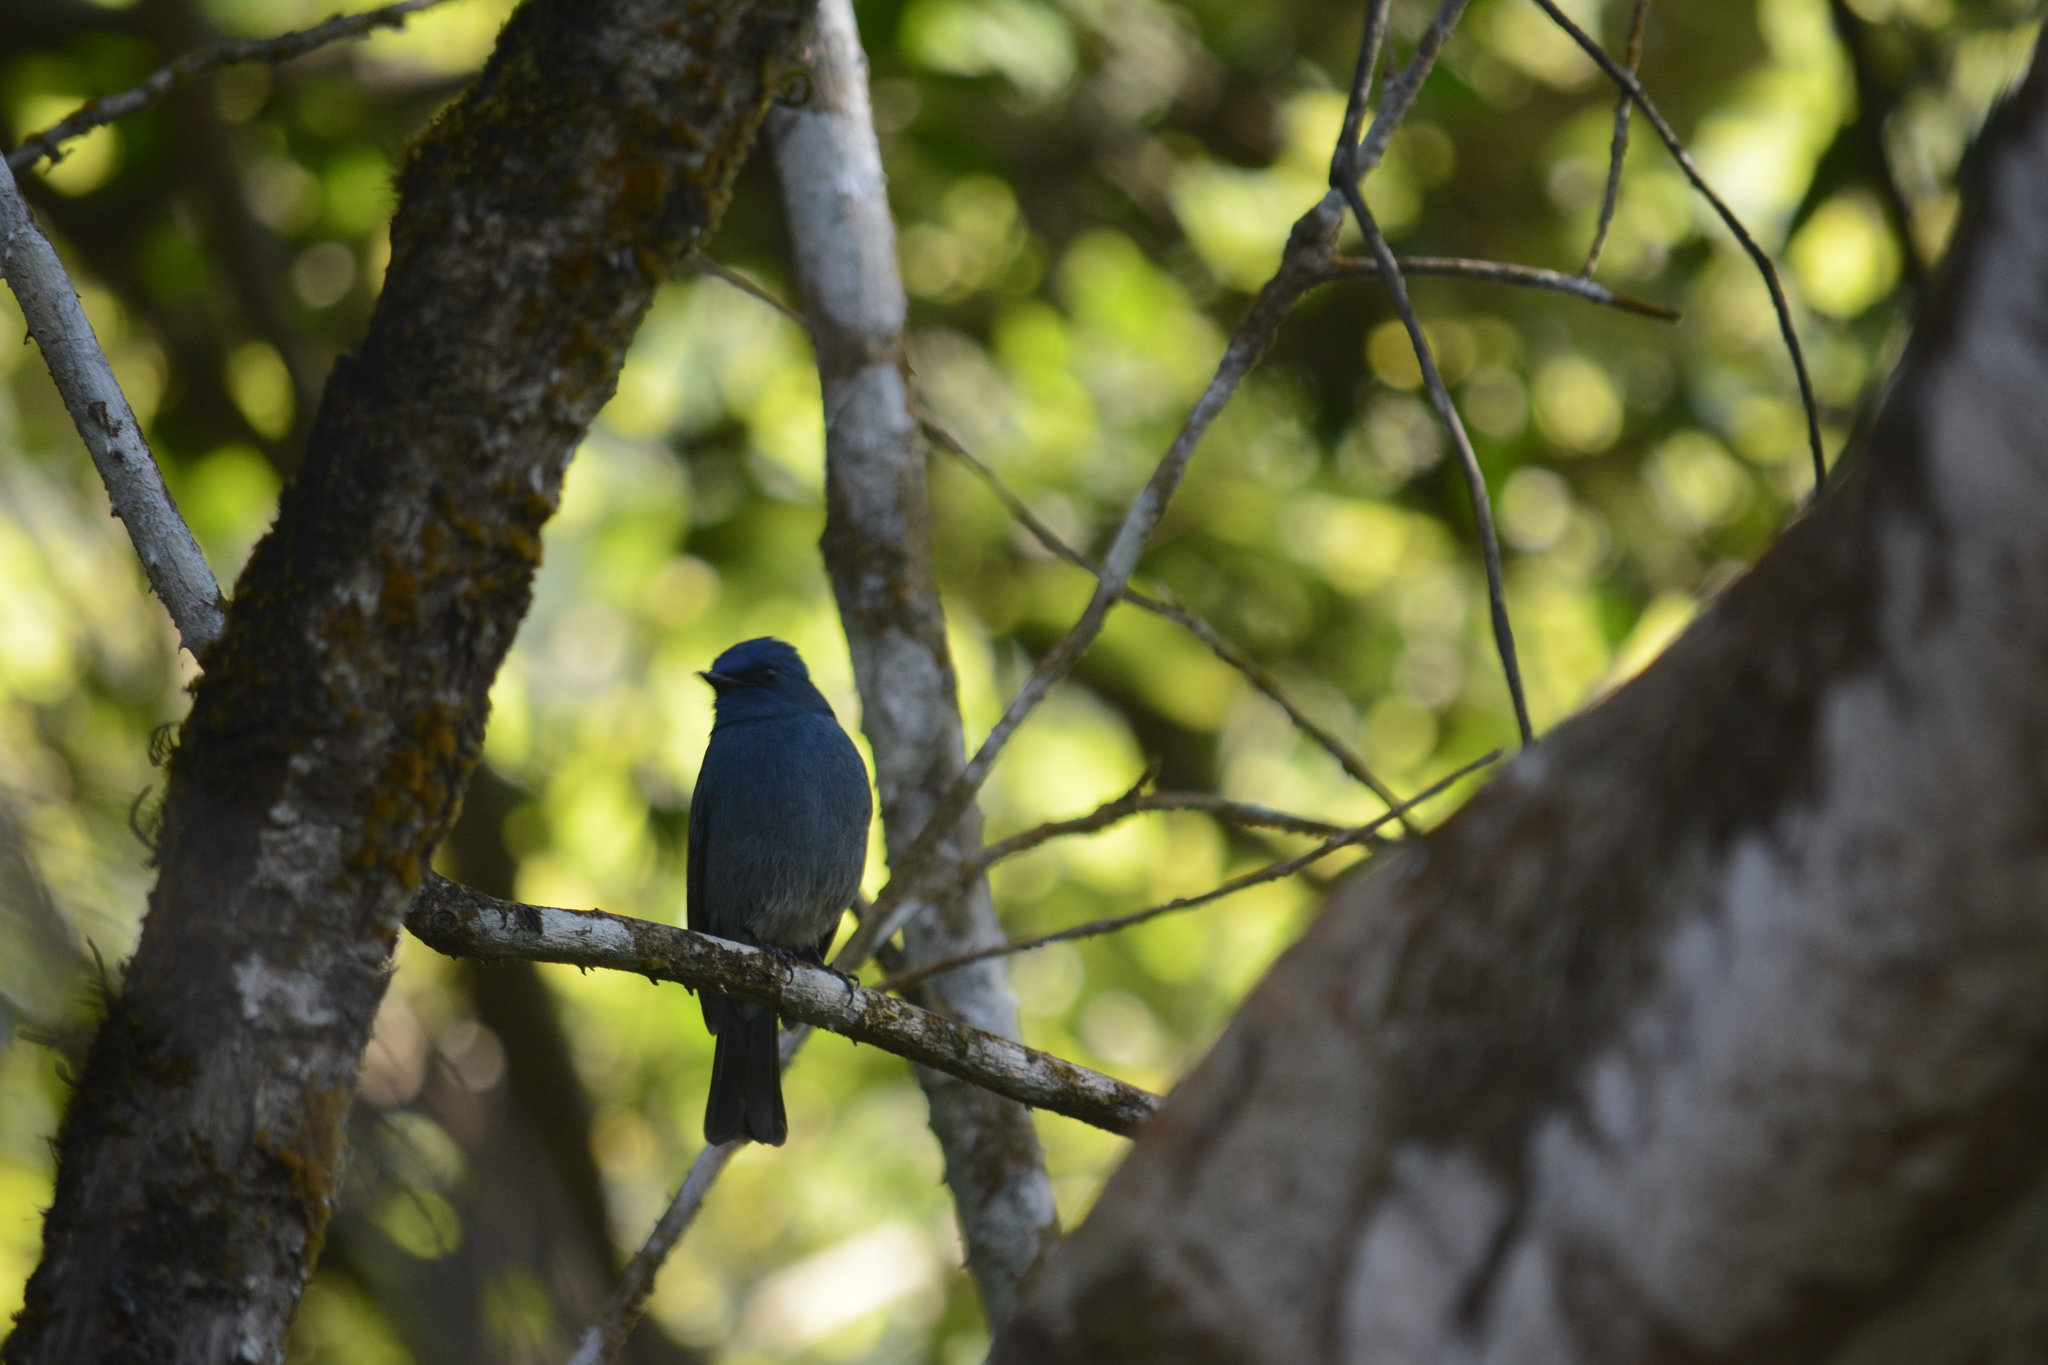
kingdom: Animalia
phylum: Chordata
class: Aves
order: Passeriformes
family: Muscicapidae
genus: Eumyias
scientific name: Eumyias albicaudatus
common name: Nilgiri flycatcher
